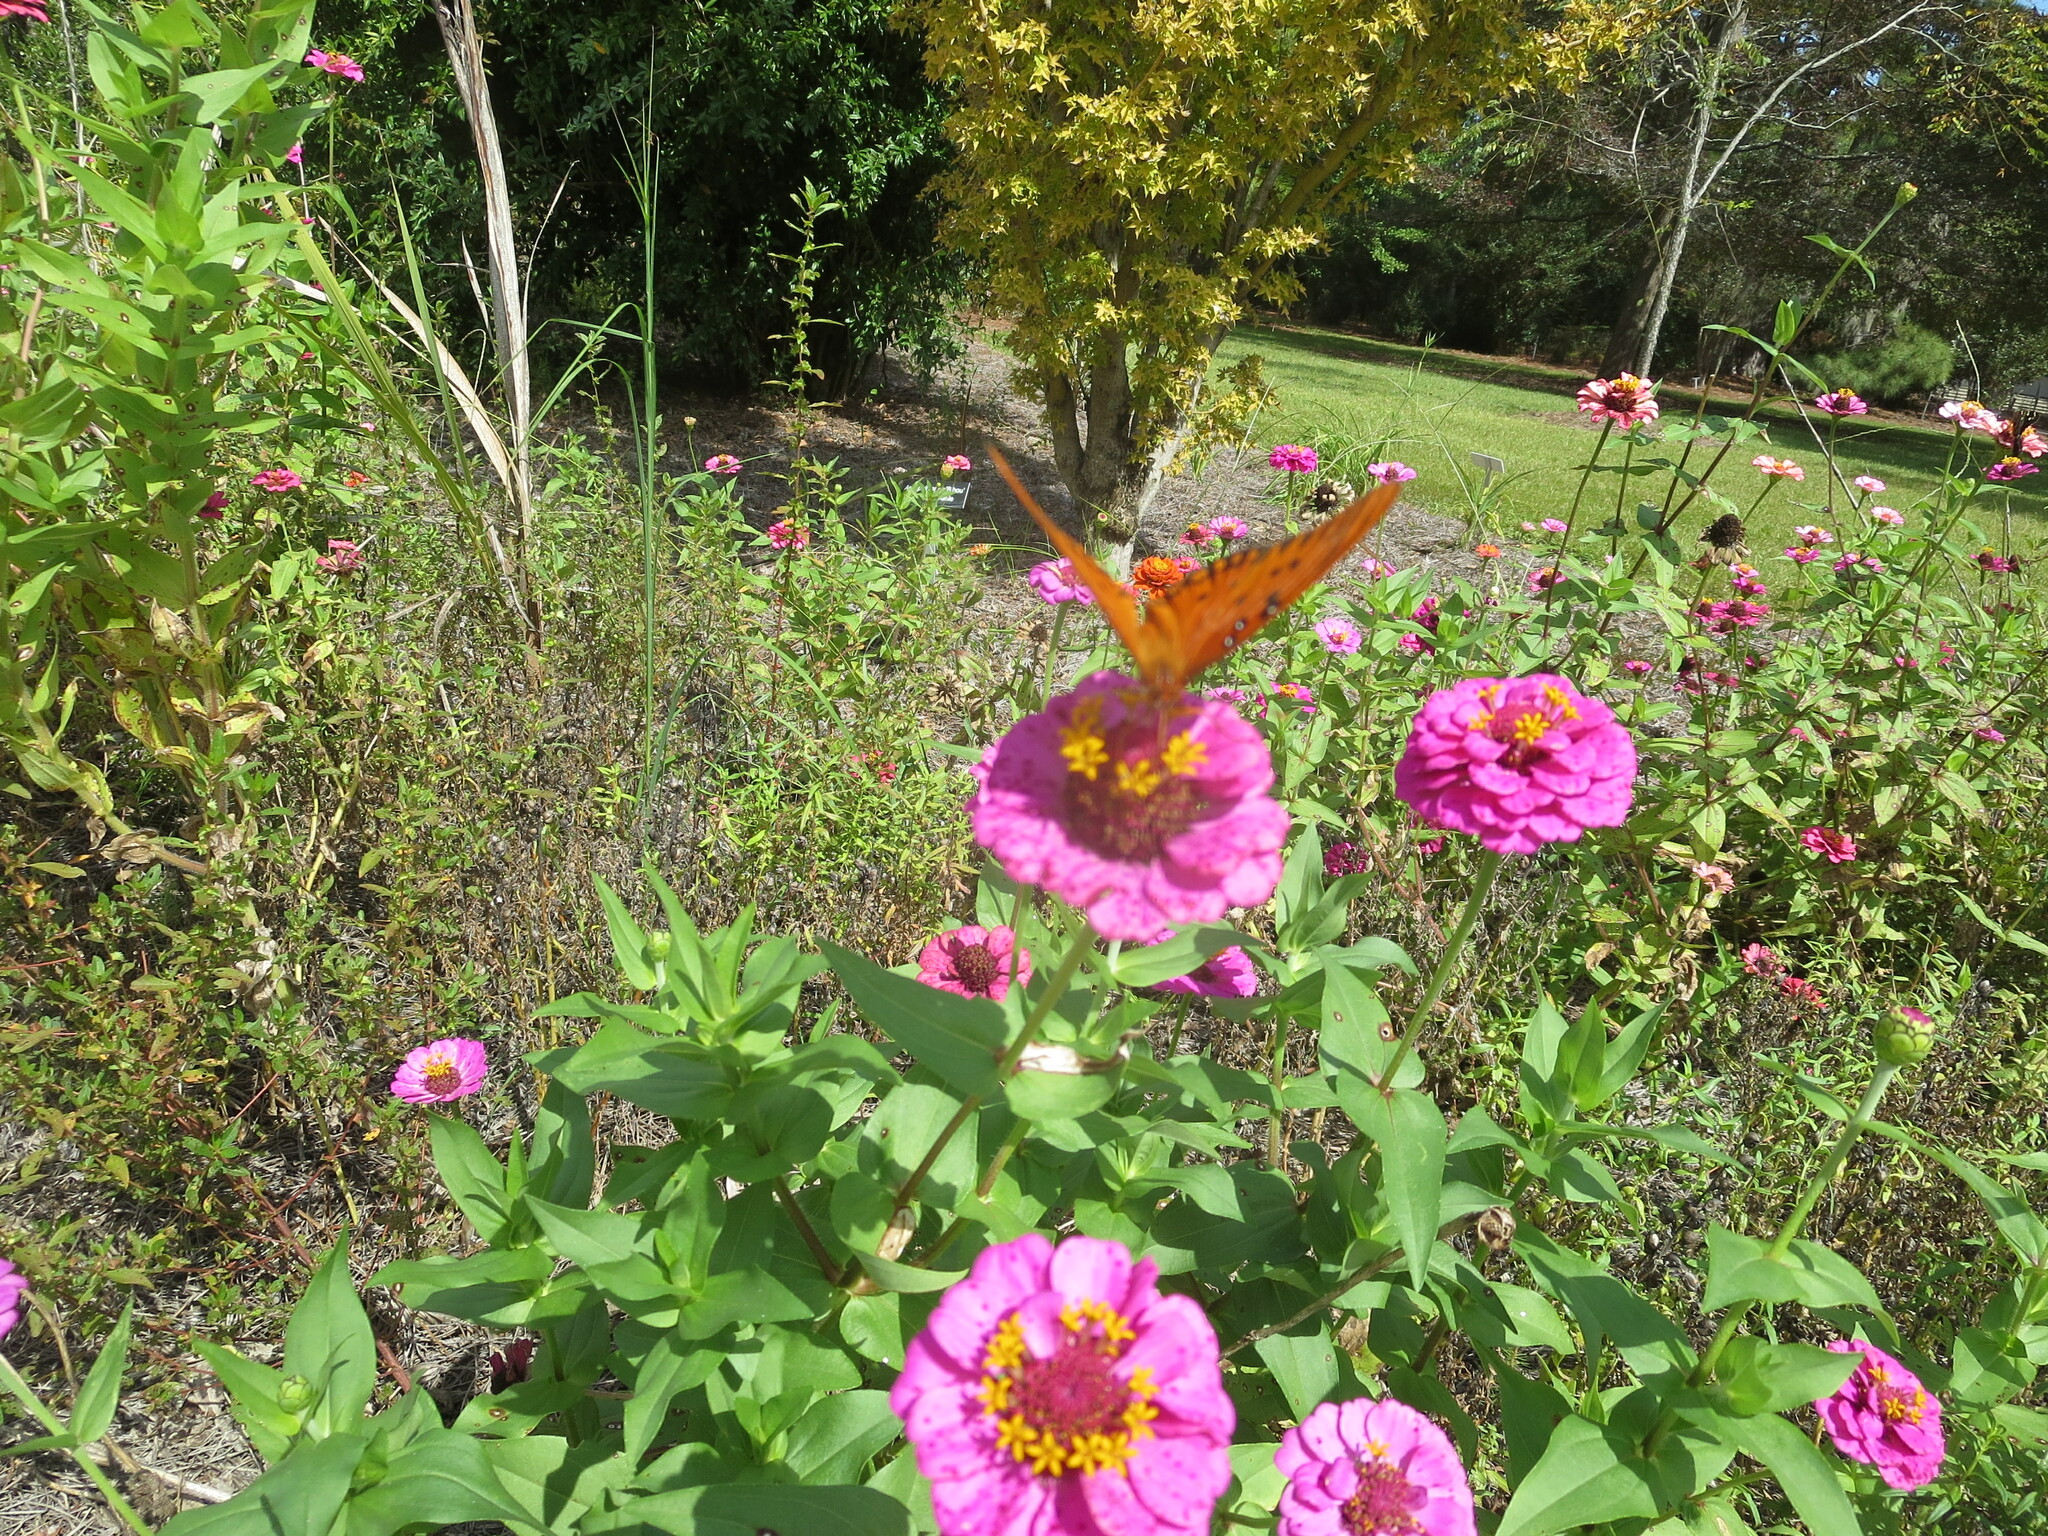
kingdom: Animalia
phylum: Arthropoda
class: Insecta
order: Lepidoptera
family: Nymphalidae
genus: Dione
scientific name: Dione vanillae
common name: Gulf fritillary
